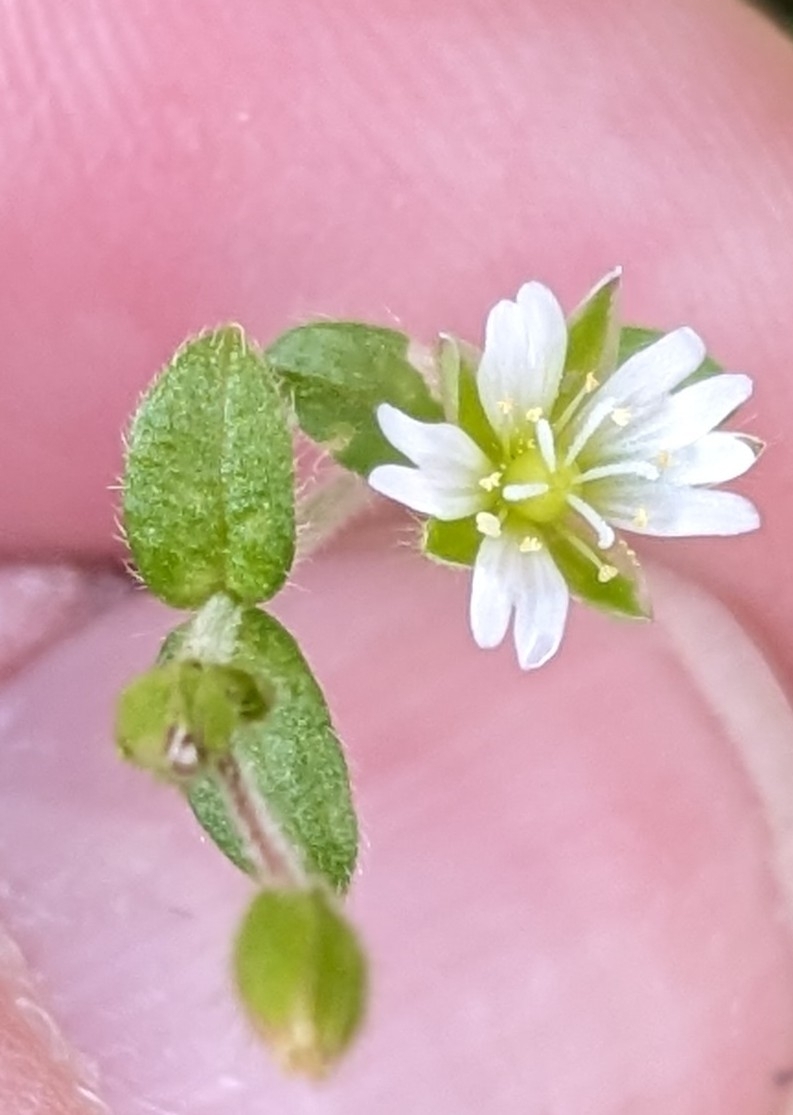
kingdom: Plantae
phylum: Tracheophyta
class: Magnoliopsida
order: Caryophyllales
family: Caryophyllaceae
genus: Cerastium
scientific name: Cerastium fontanum
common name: Common mouse-ear
